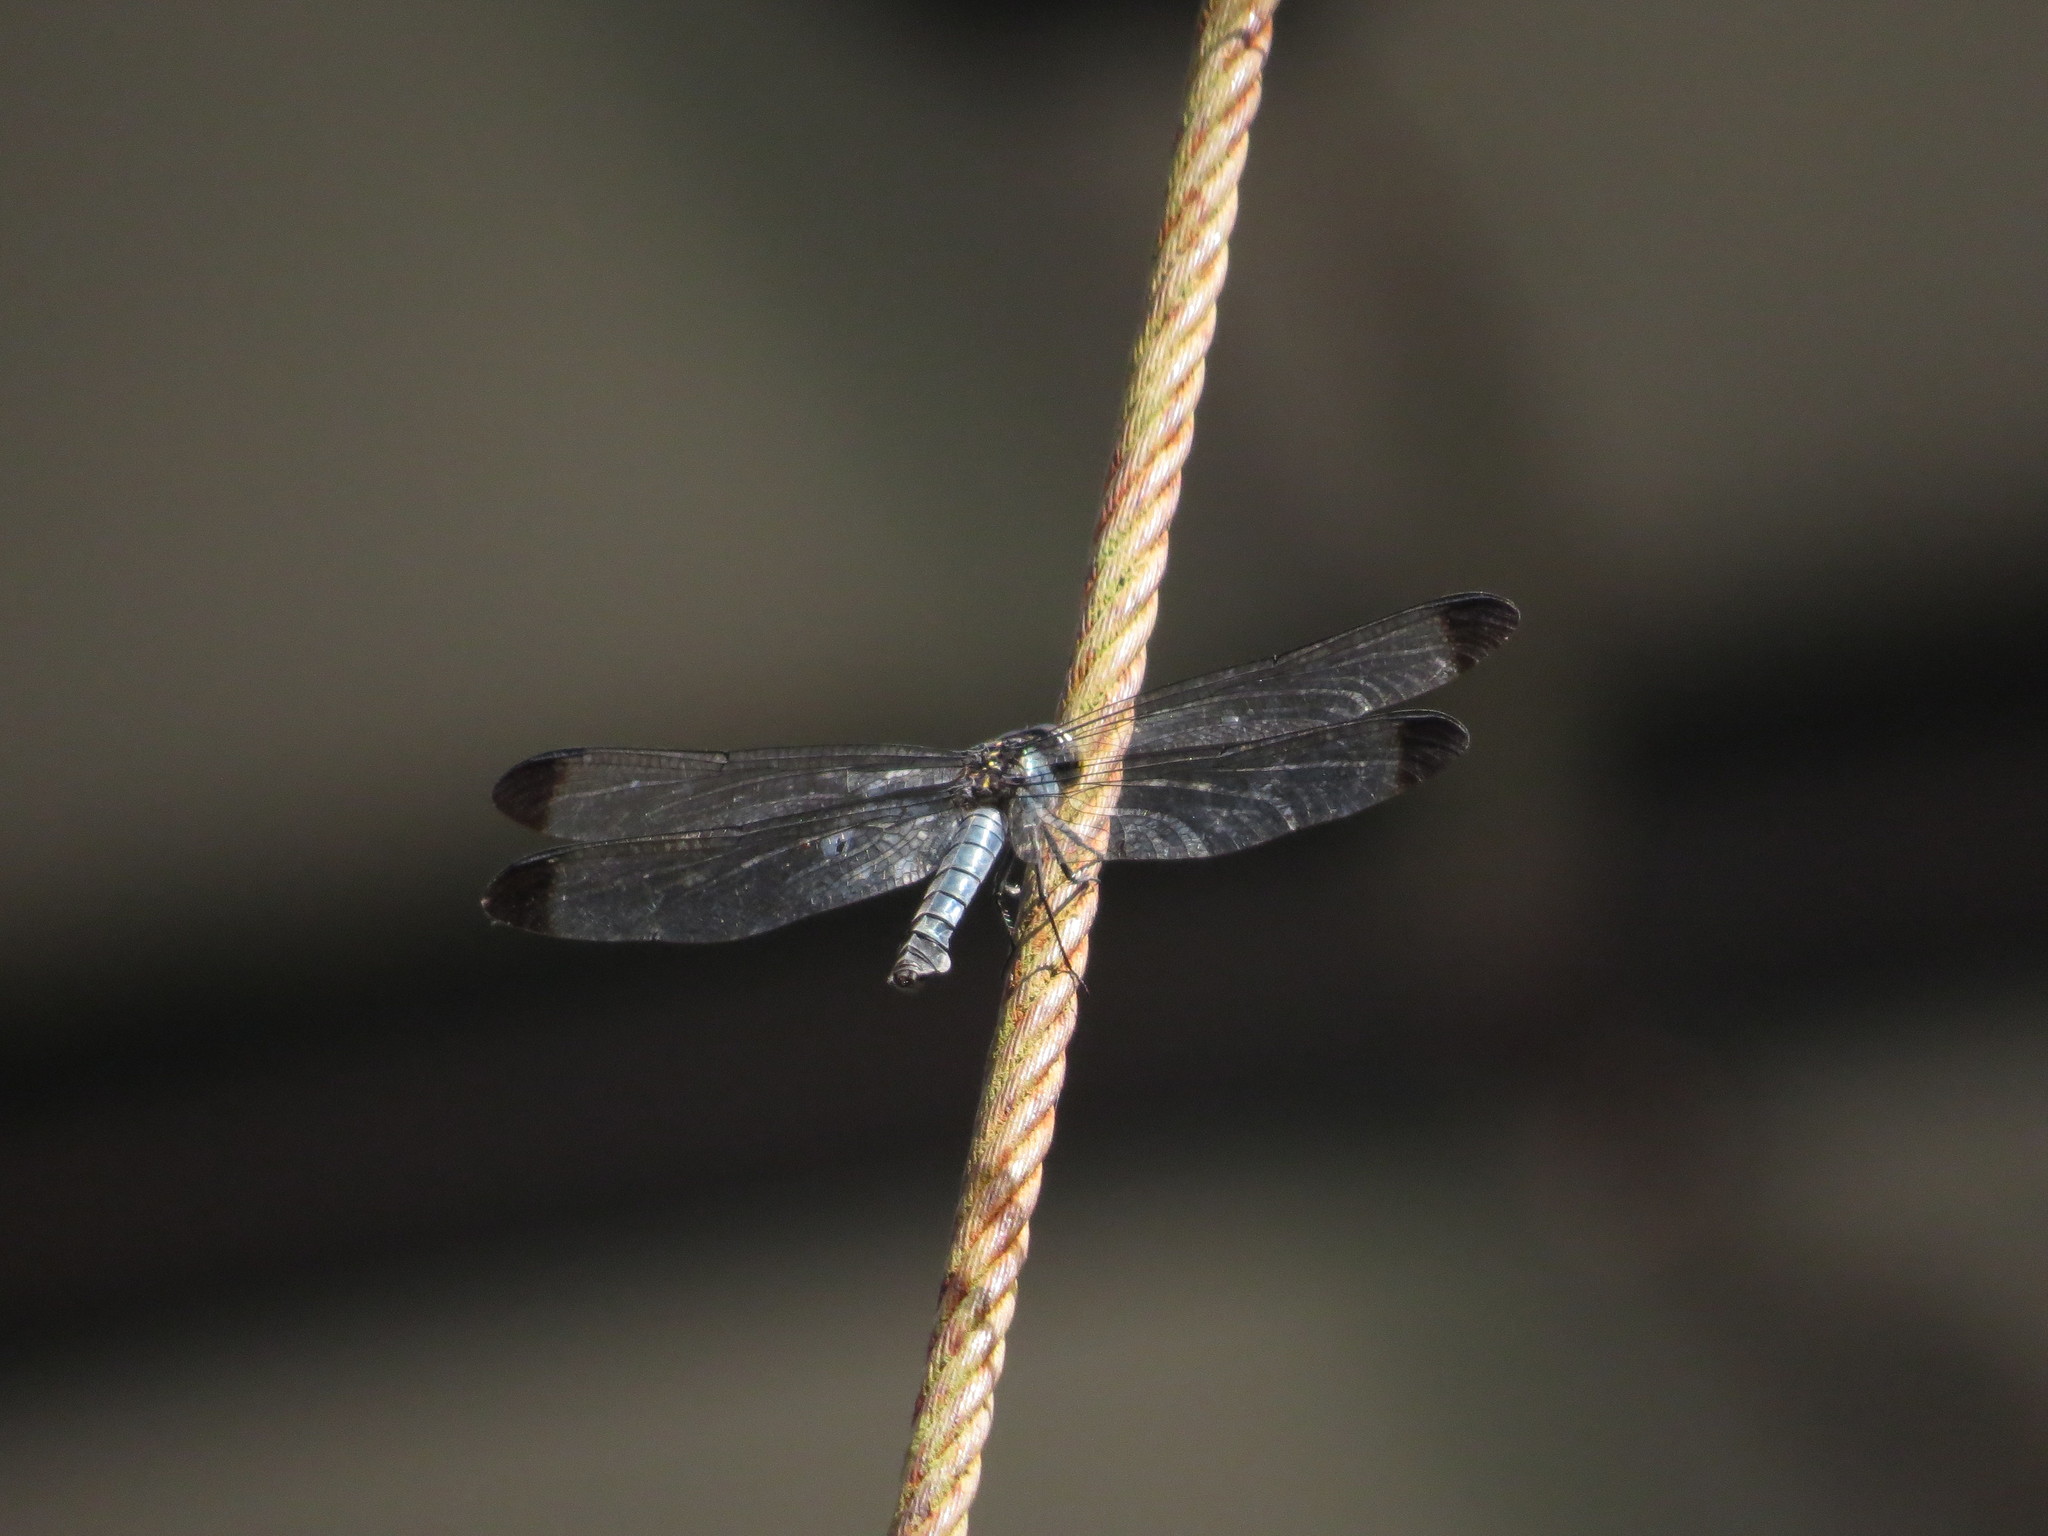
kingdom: Animalia
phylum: Arthropoda
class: Insecta
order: Odonata
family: Libellulidae
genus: Cratilla
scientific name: Cratilla metallica
